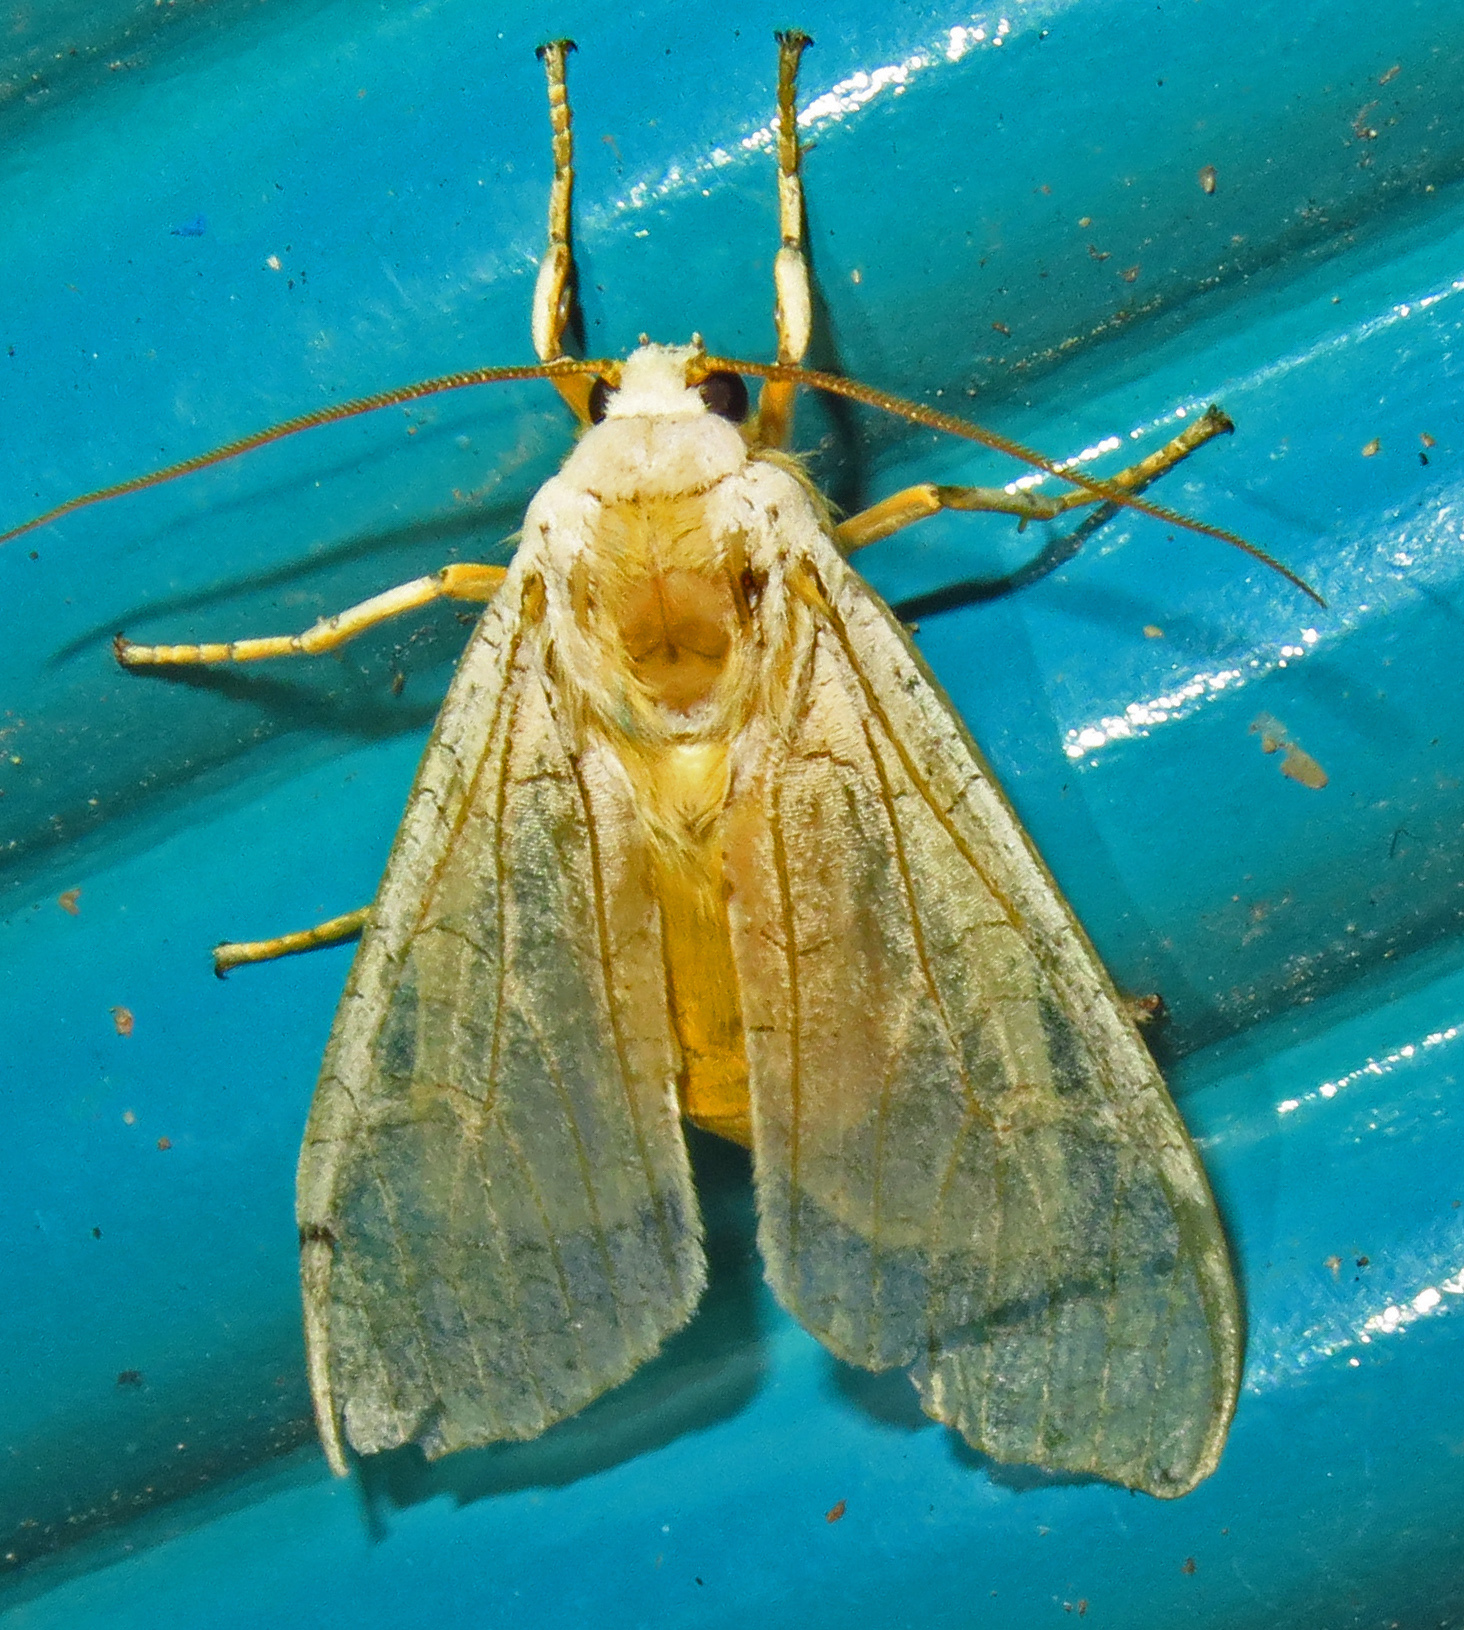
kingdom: Animalia
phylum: Arthropoda
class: Insecta
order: Lepidoptera
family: Erebidae
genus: Halysidota
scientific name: Halysidota
